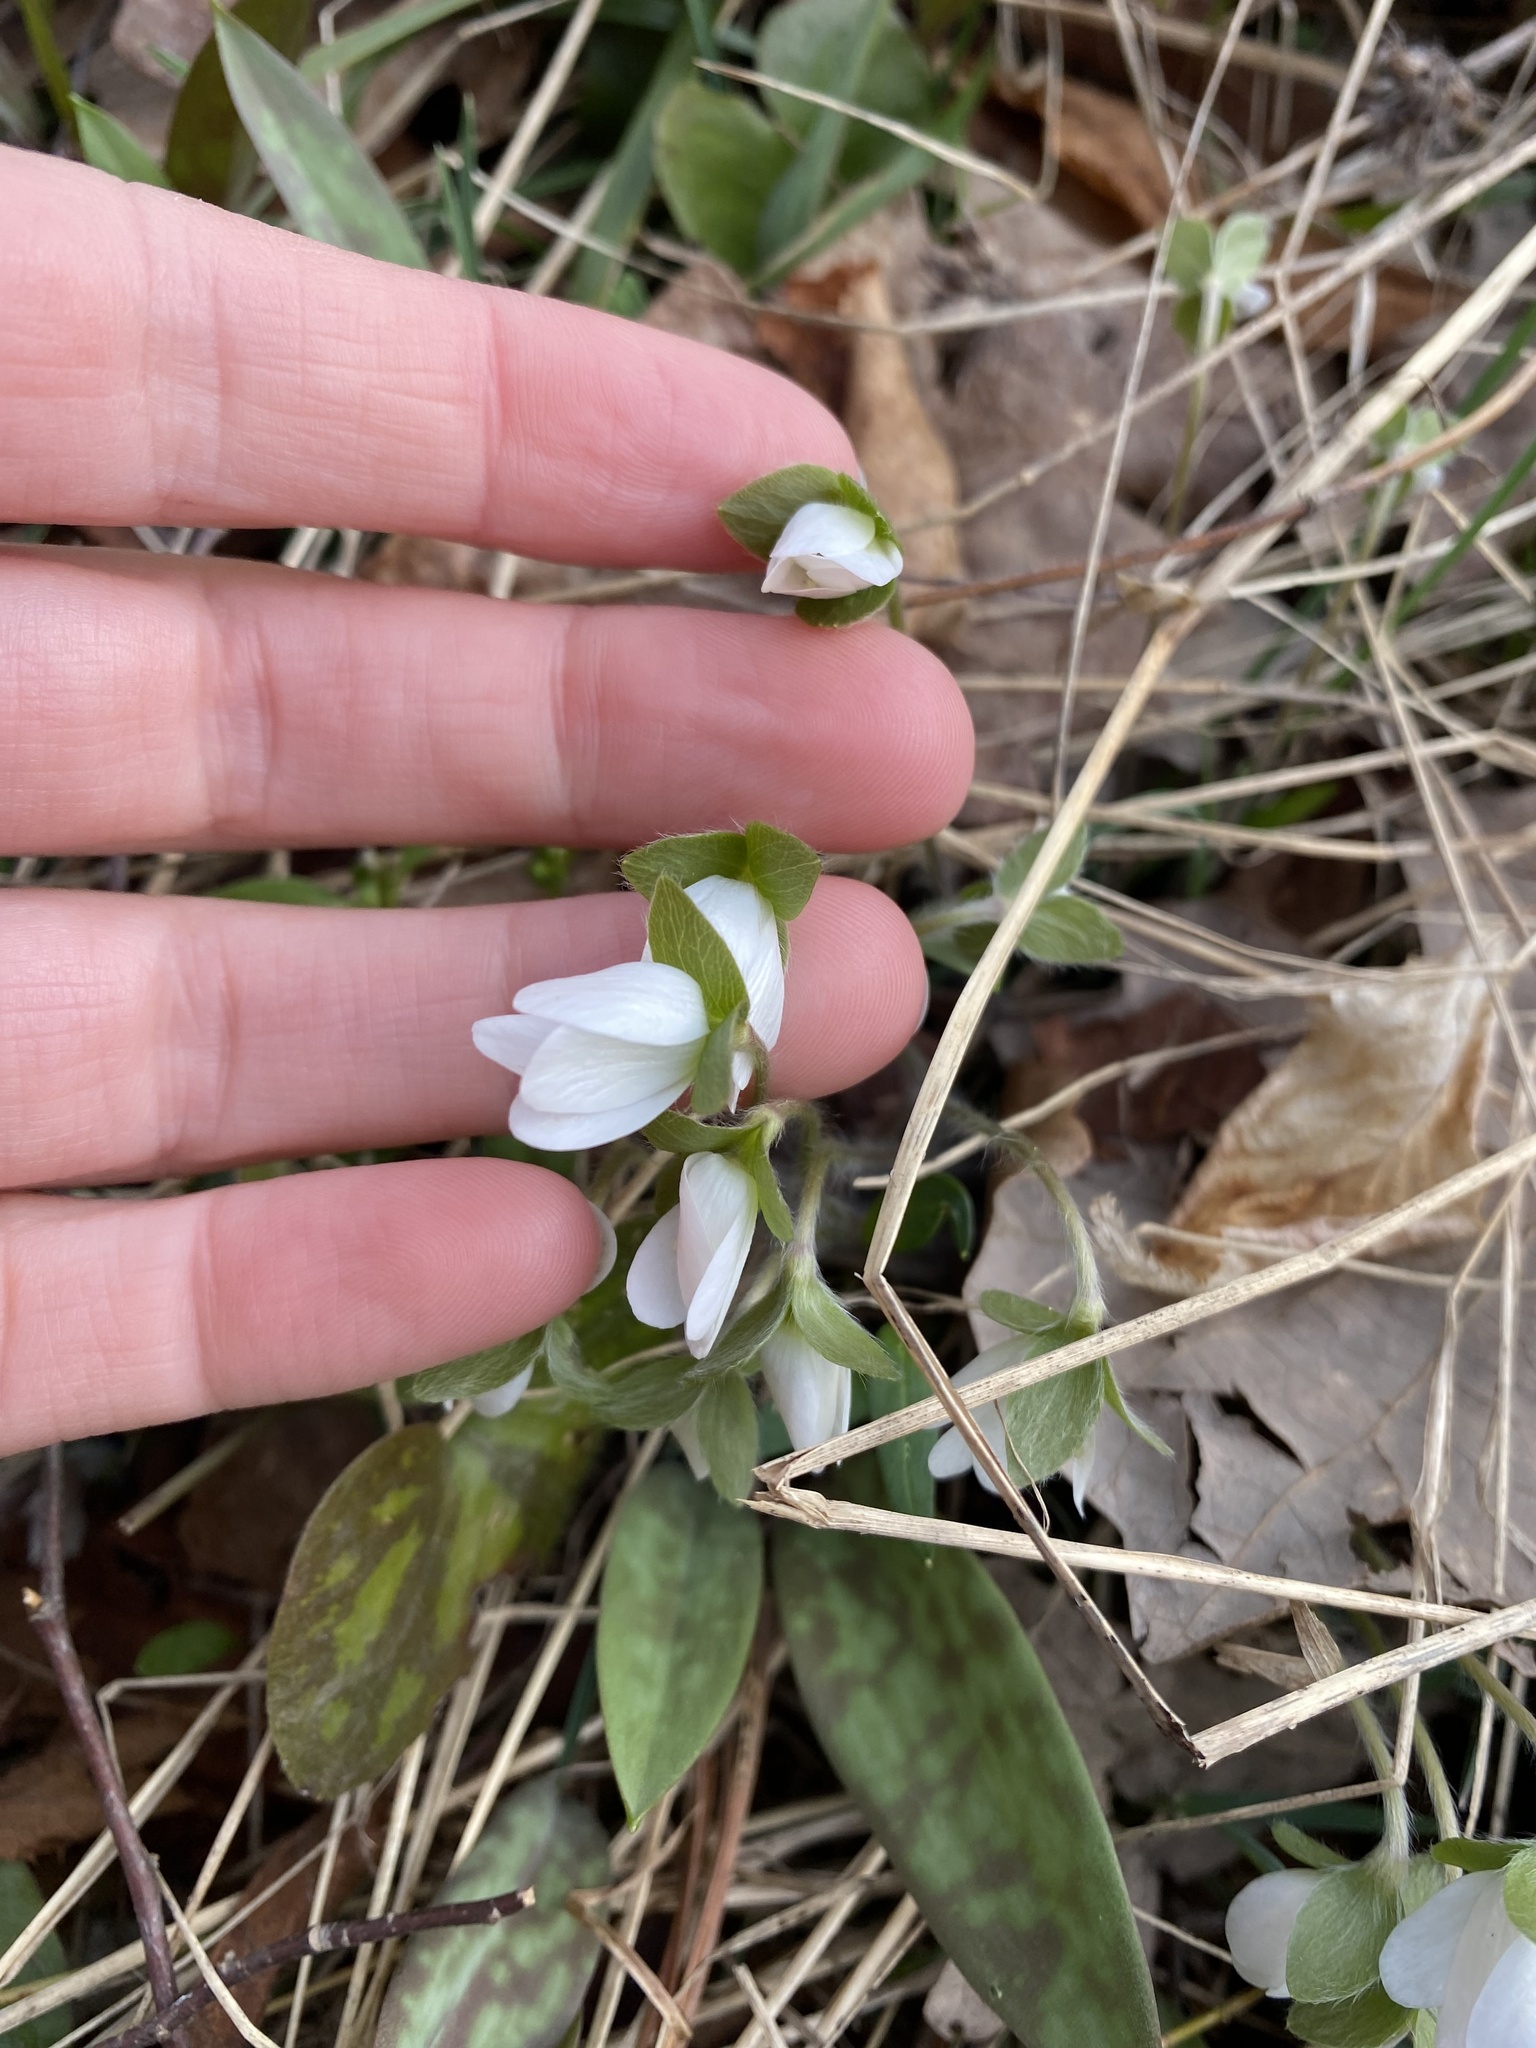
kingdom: Plantae
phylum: Tracheophyta
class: Magnoliopsida
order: Ranunculales
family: Ranunculaceae
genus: Hepatica
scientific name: Hepatica americana
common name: American hepatica
